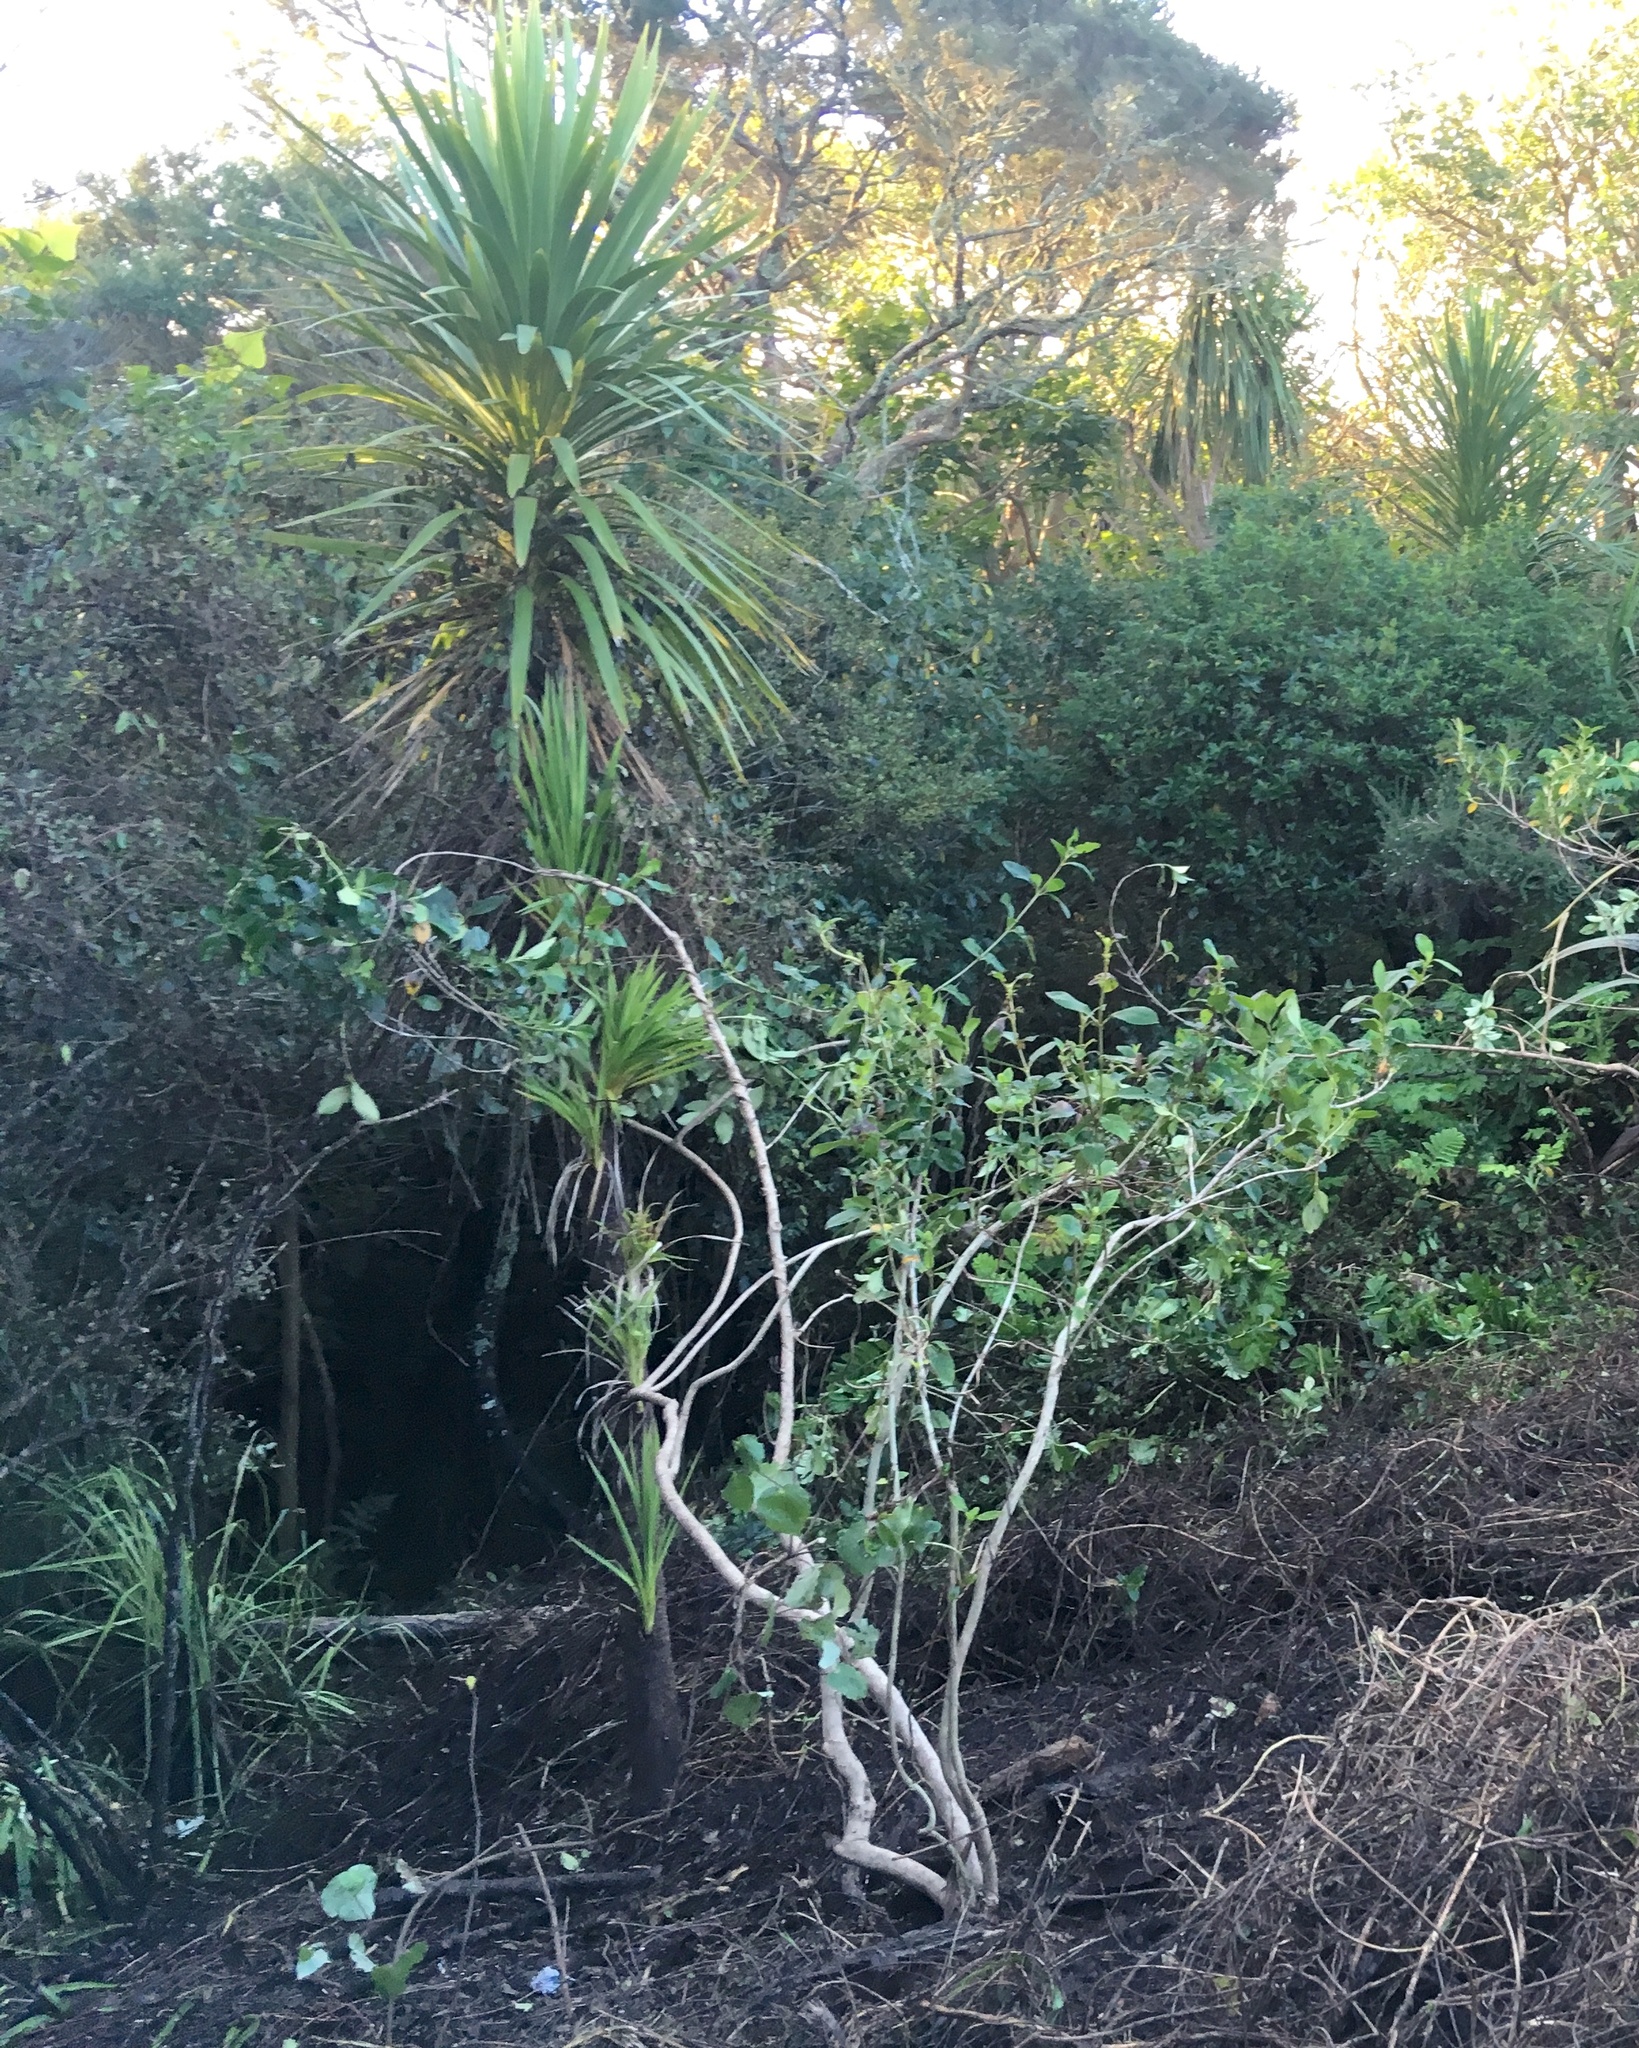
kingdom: Plantae
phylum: Tracheophyta
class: Liliopsida
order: Asparagales
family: Asparagaceae
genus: Cordyline
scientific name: Cordyline australis
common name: Cabbage-palm
